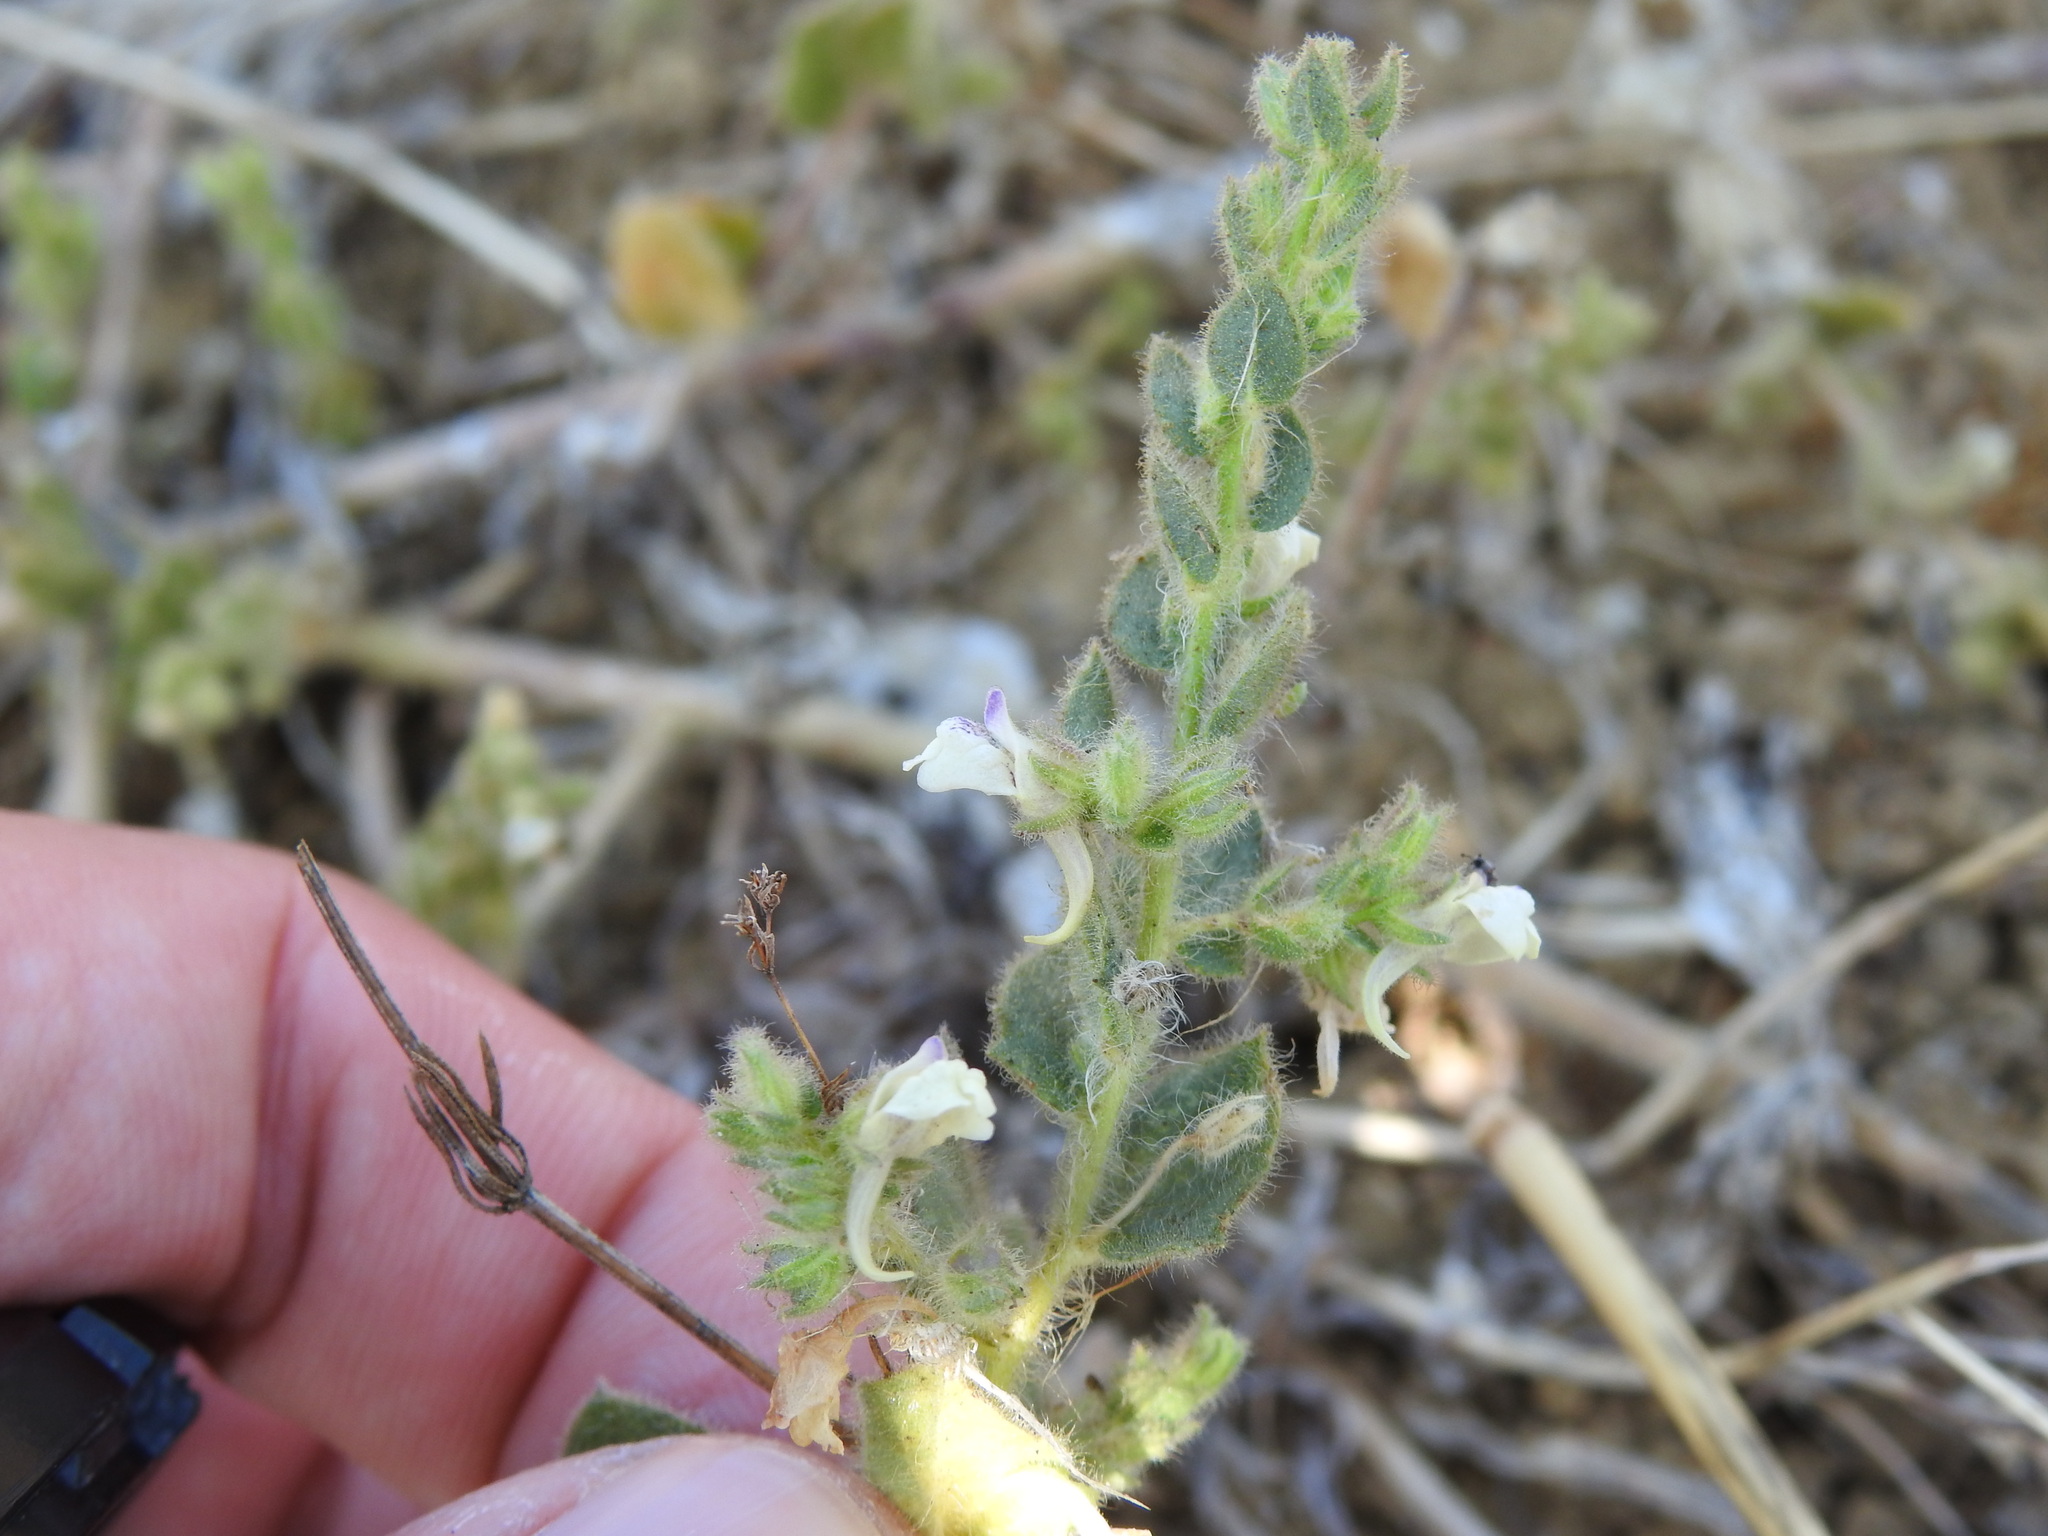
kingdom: Plantae
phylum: Tracheophyta
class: Magnoliopsida
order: Lamiales
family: Plantaginaceae
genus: Kickxia
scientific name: Kickxia lanigera
